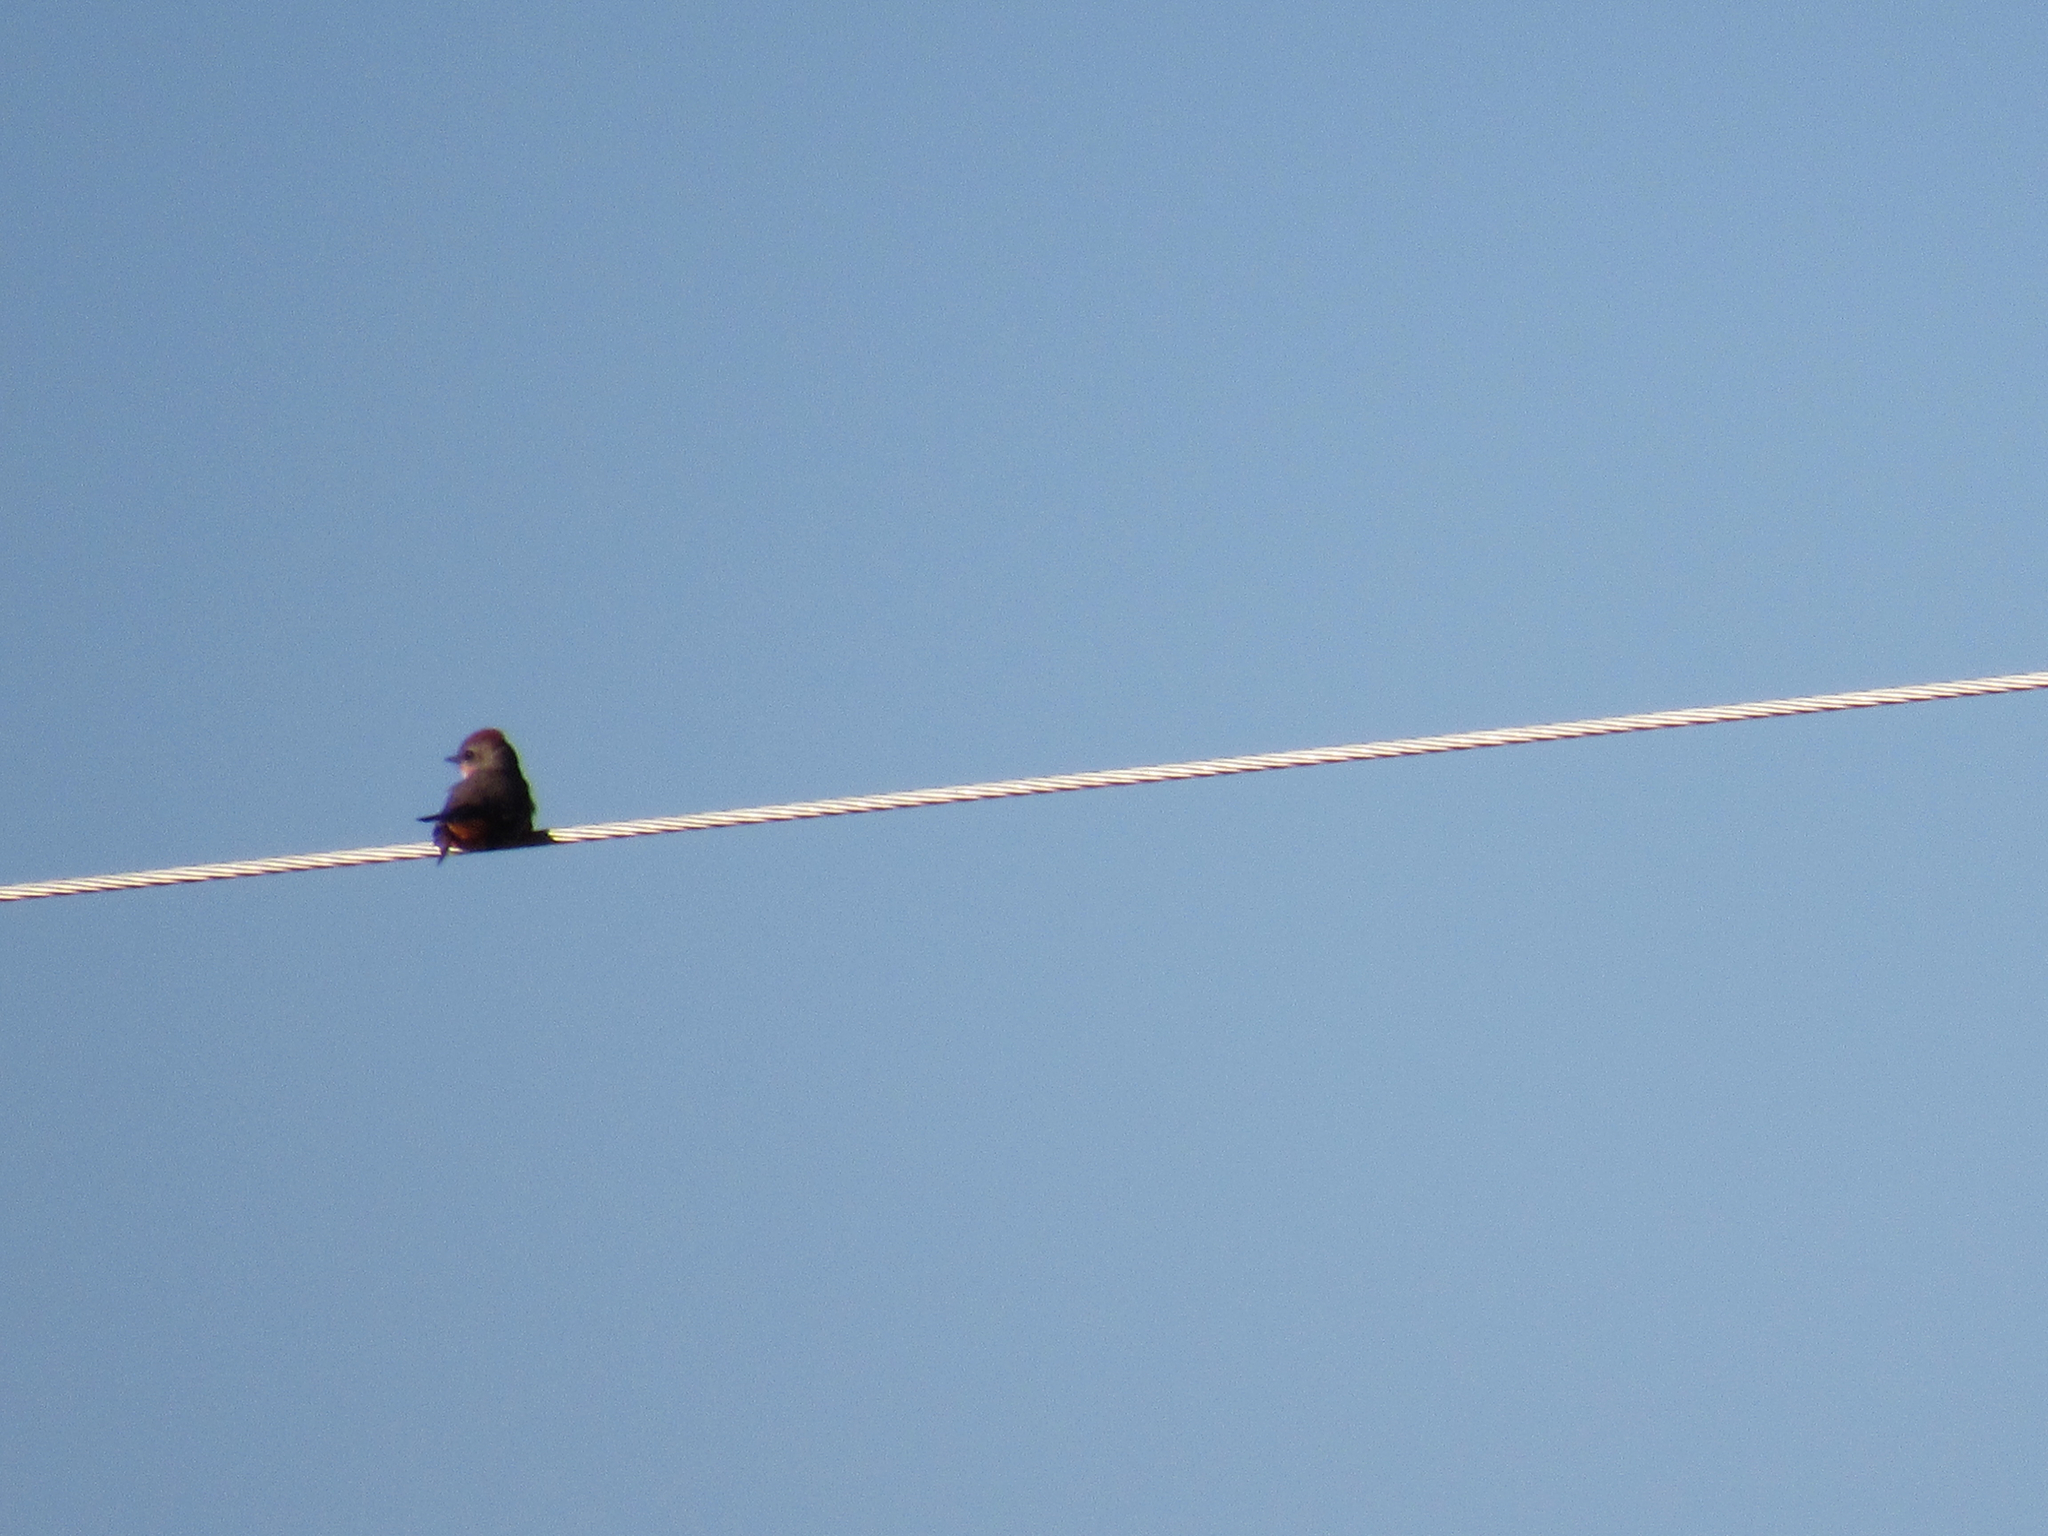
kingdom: Animalia
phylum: Chordata
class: Aves
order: Passeriformes
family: Tyrannidae
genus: Pyrocephalus
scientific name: Pyrocephalus rubinus
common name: Vermilion flycatcher
